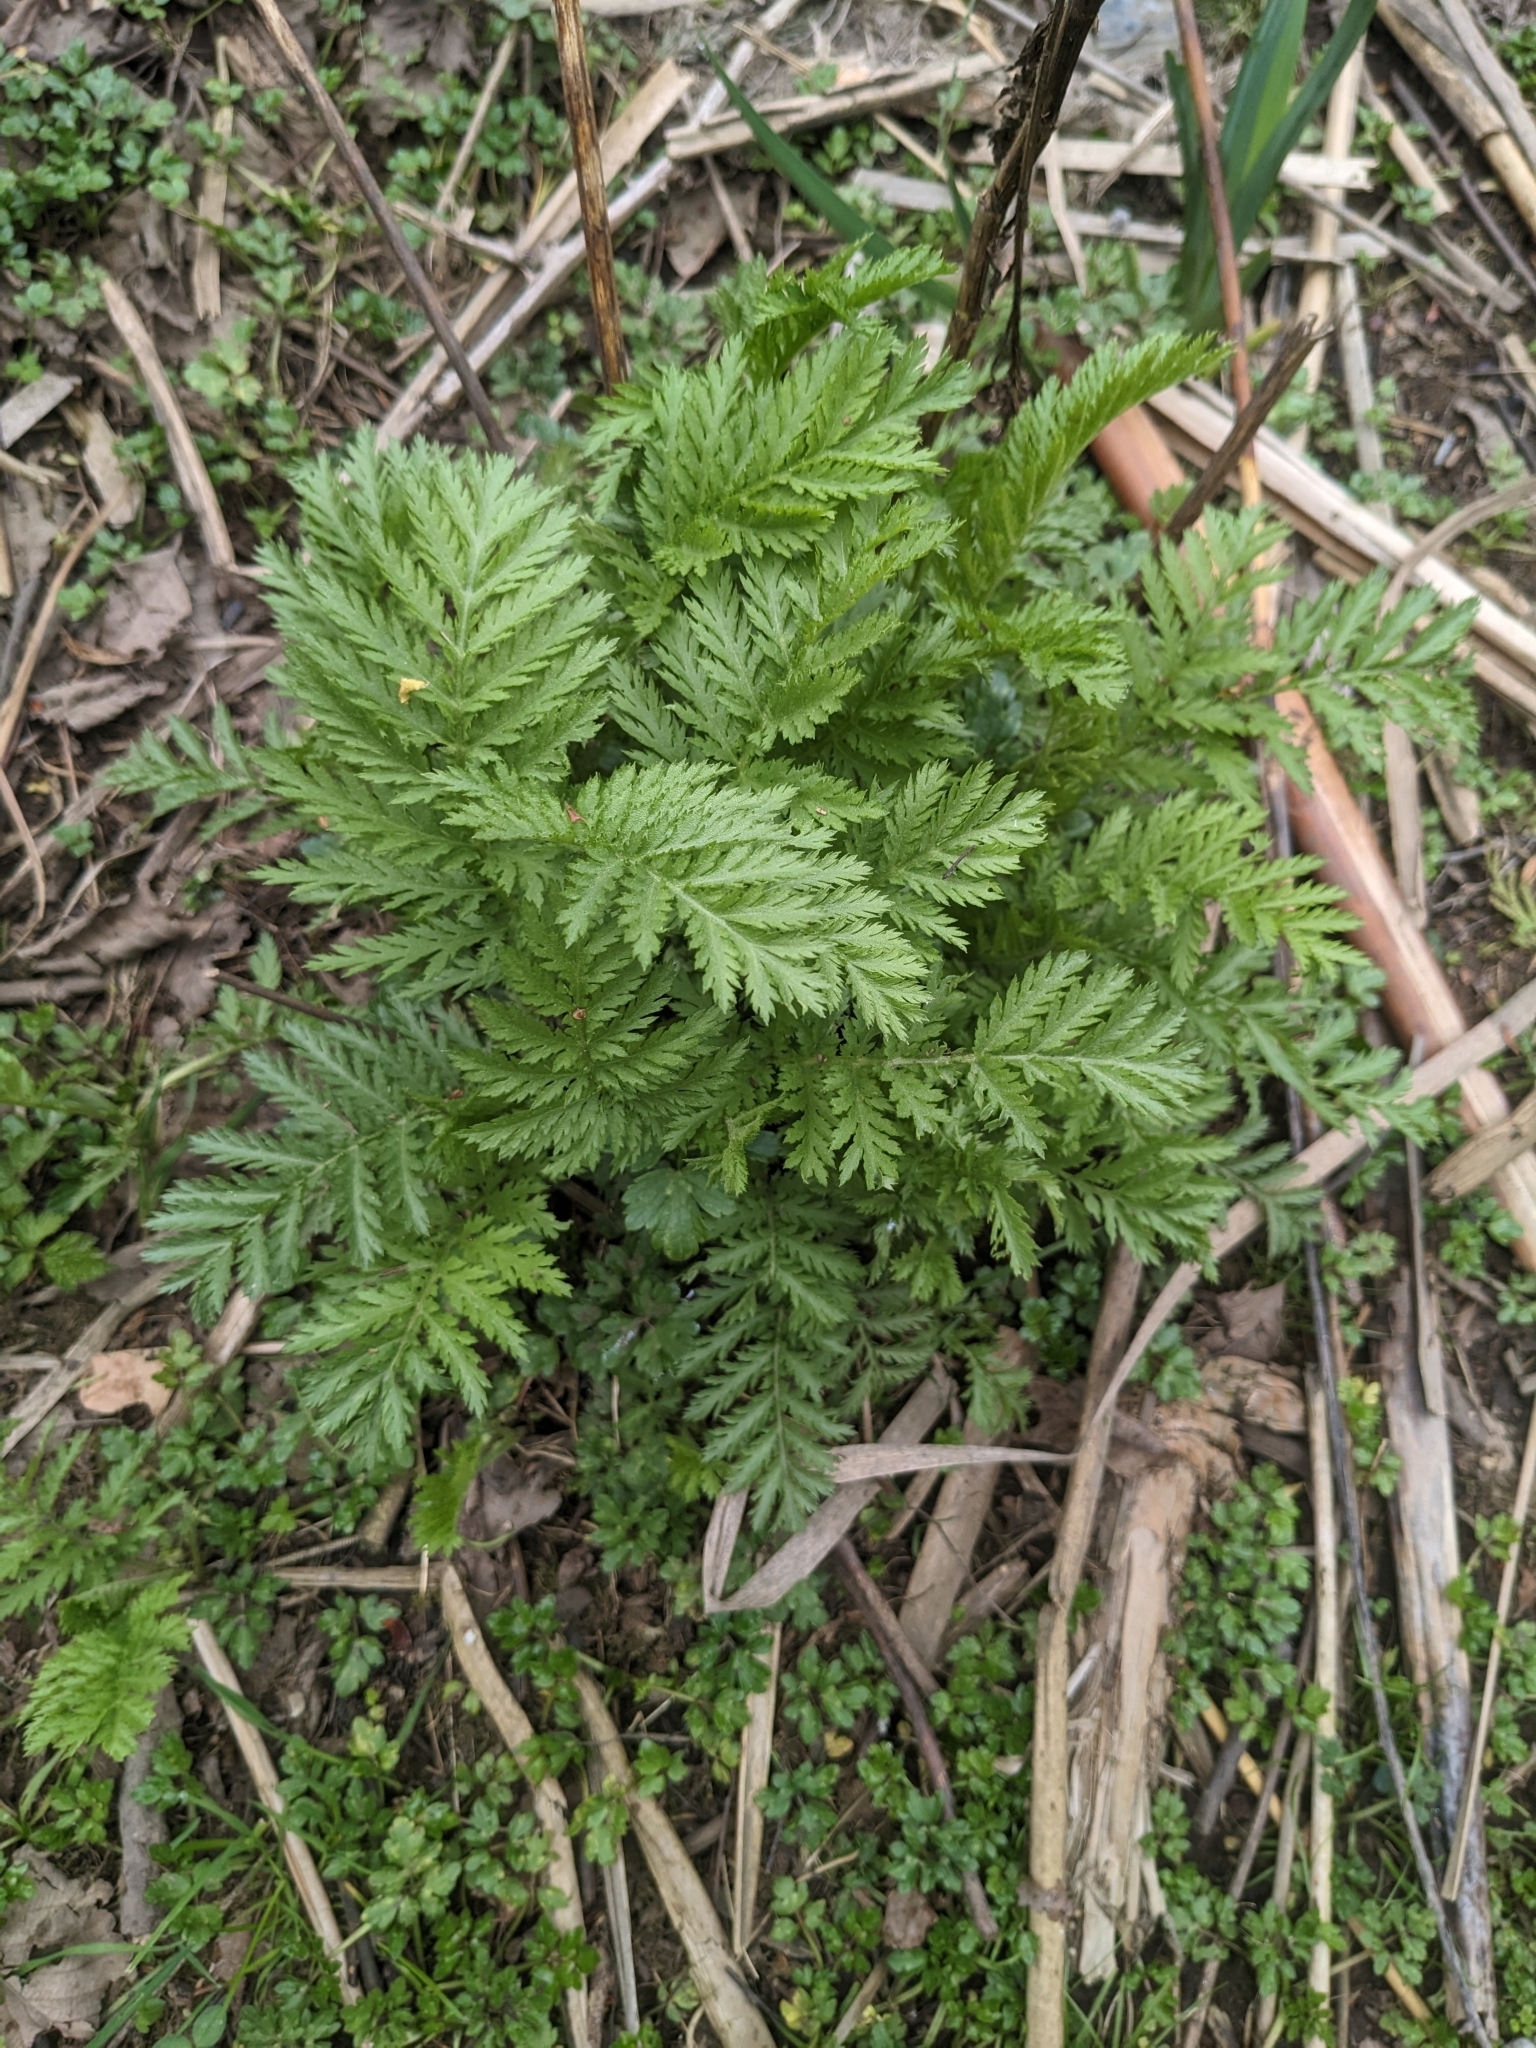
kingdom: Plantae
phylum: Tracheophyta
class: Magnoliopsida
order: Asterales
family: Asteraceae
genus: Tanacetum
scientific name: Tanacetum vulgare
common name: Common tansy
